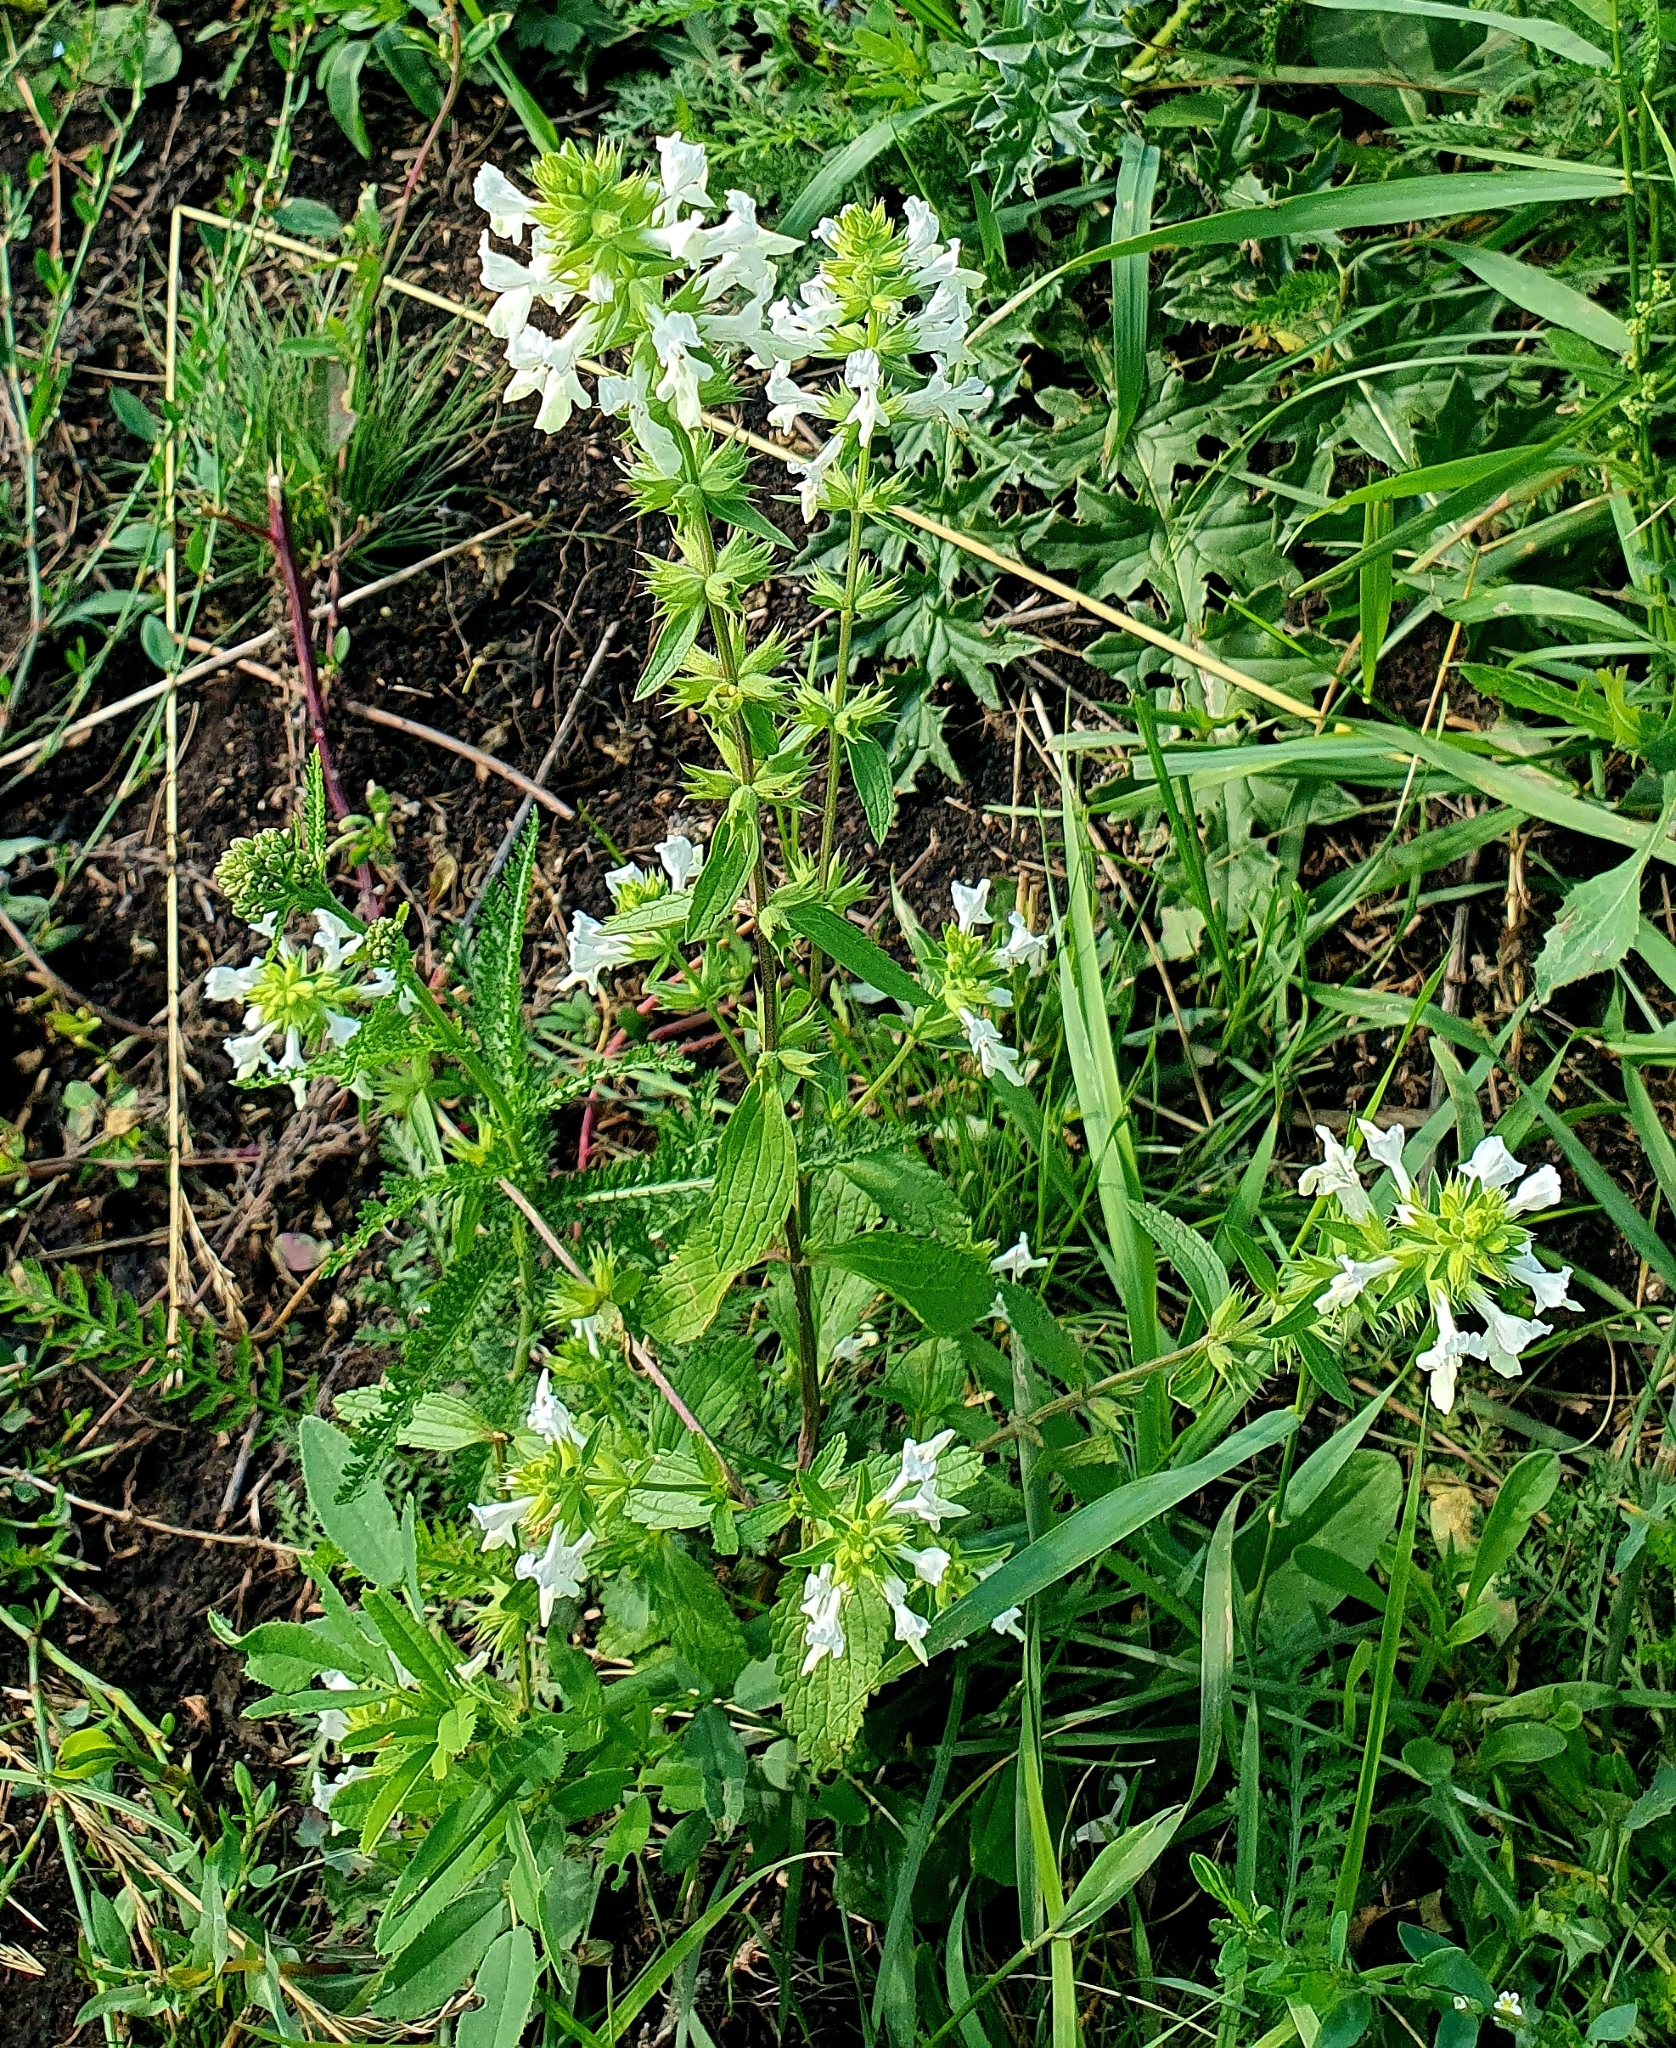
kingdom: Plantae
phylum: Tracheophyta
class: Magnoliopsida
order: Lamiales
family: Lamiaceae
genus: Stachys
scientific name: Stachys annua
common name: Annual yellow-woundwort
